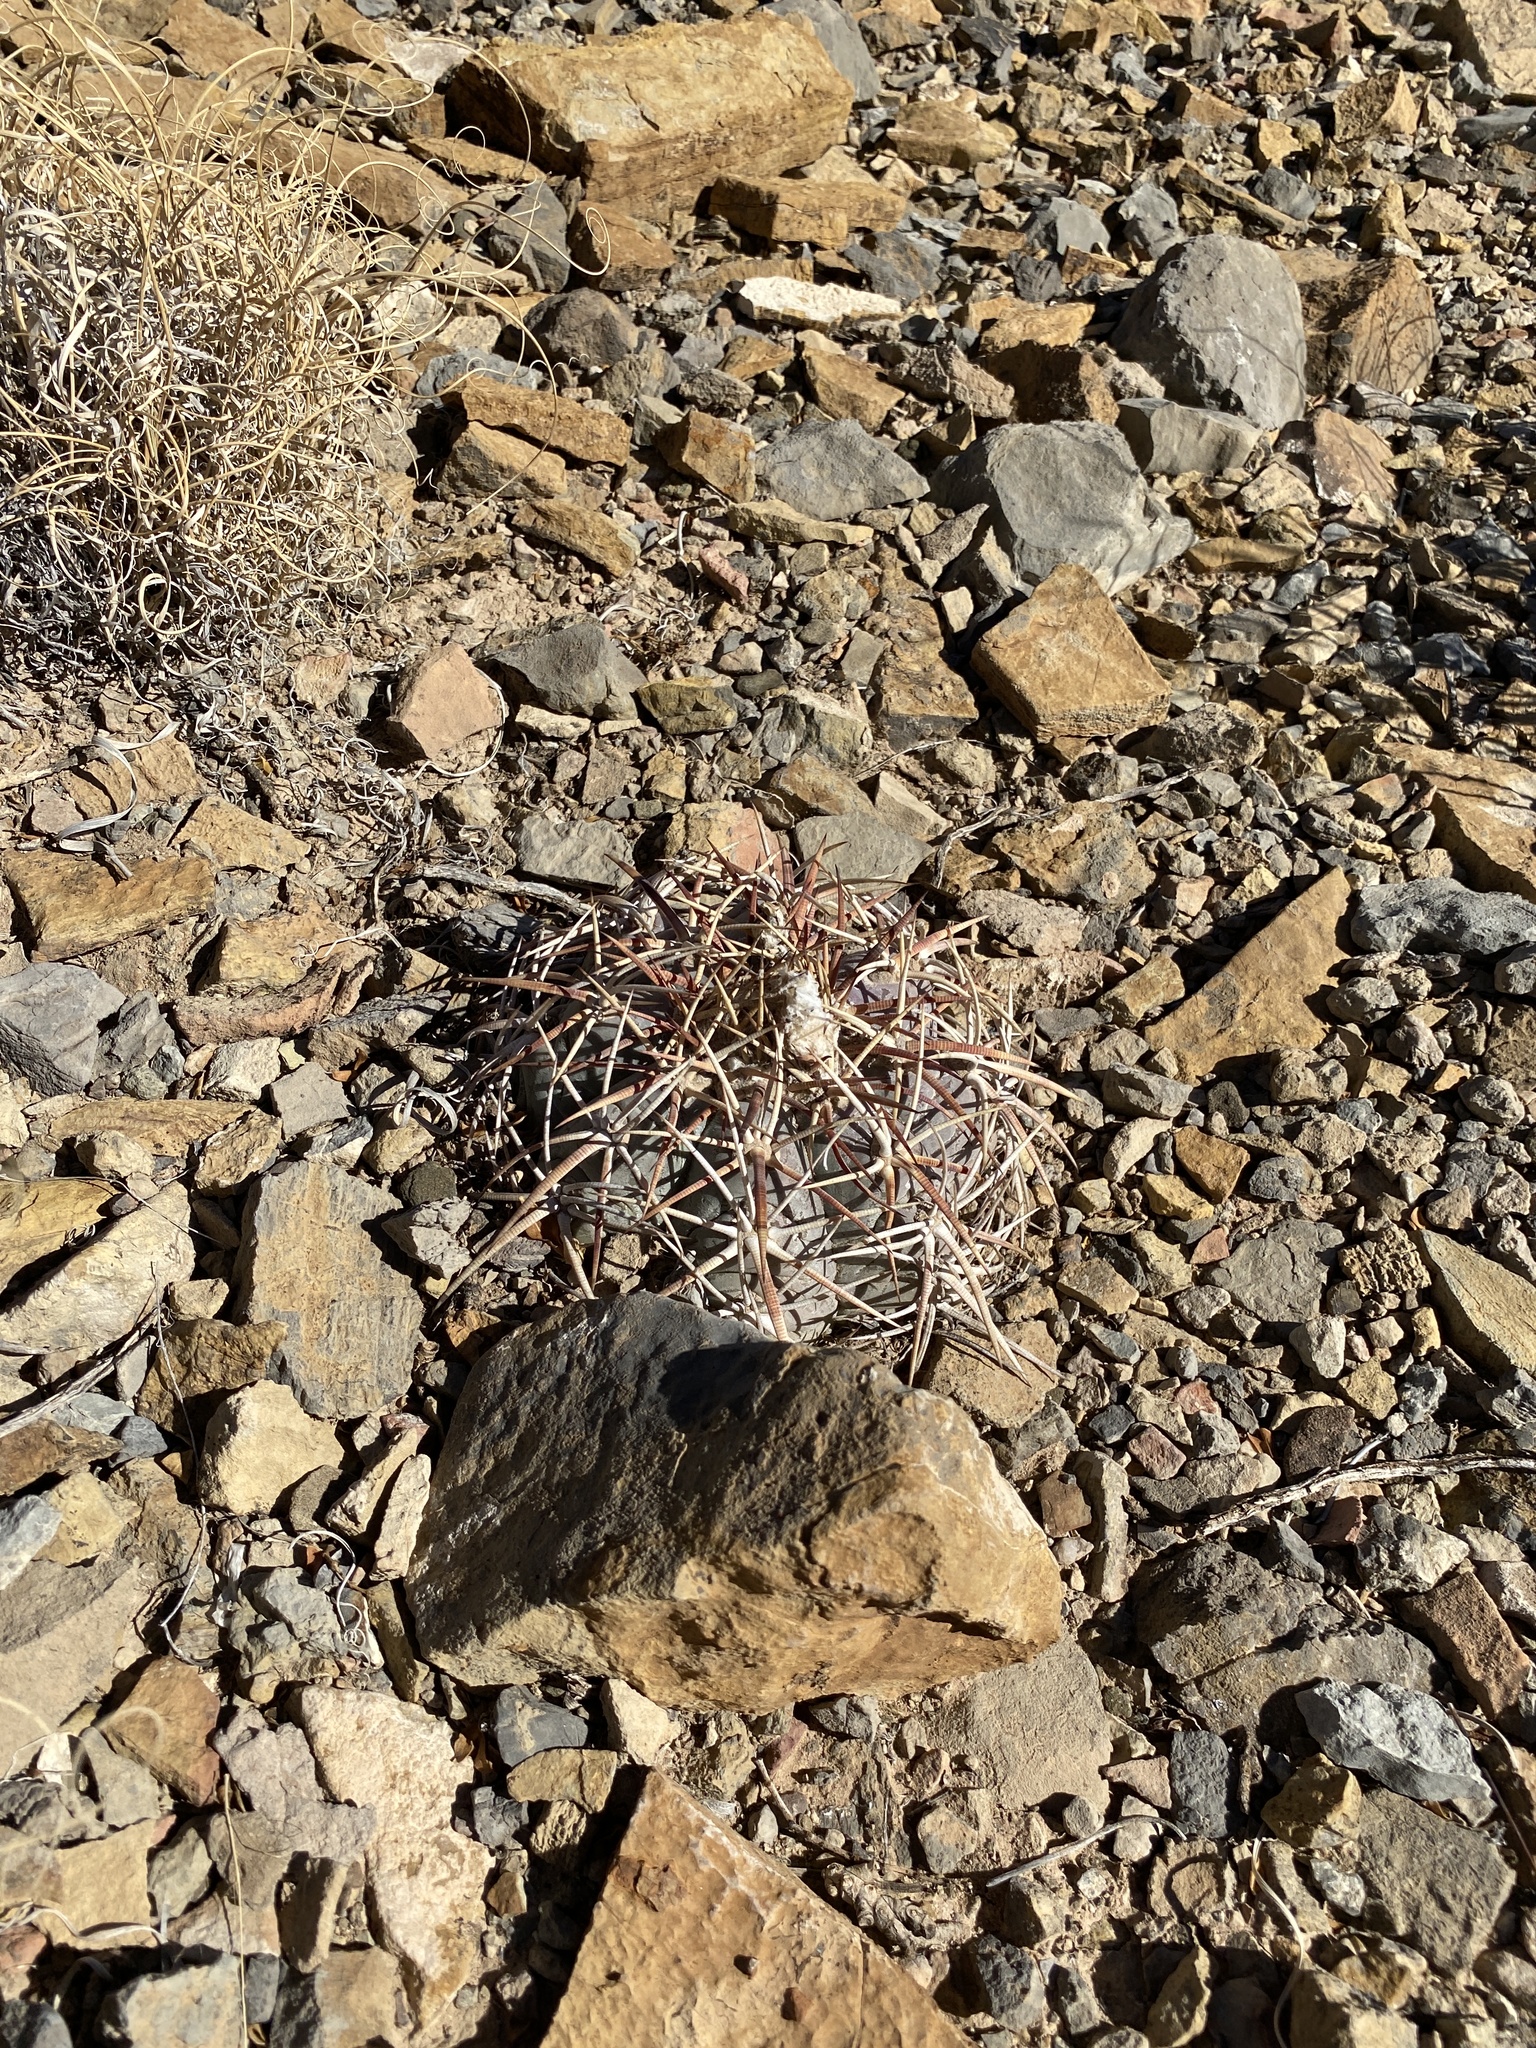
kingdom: Plantae
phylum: Tracheophyta
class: Magnoliopsida
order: Caryophyllales
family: Cactaceae
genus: Echinocactus
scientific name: Echinocactus horizonthalonius
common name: Devilshead
